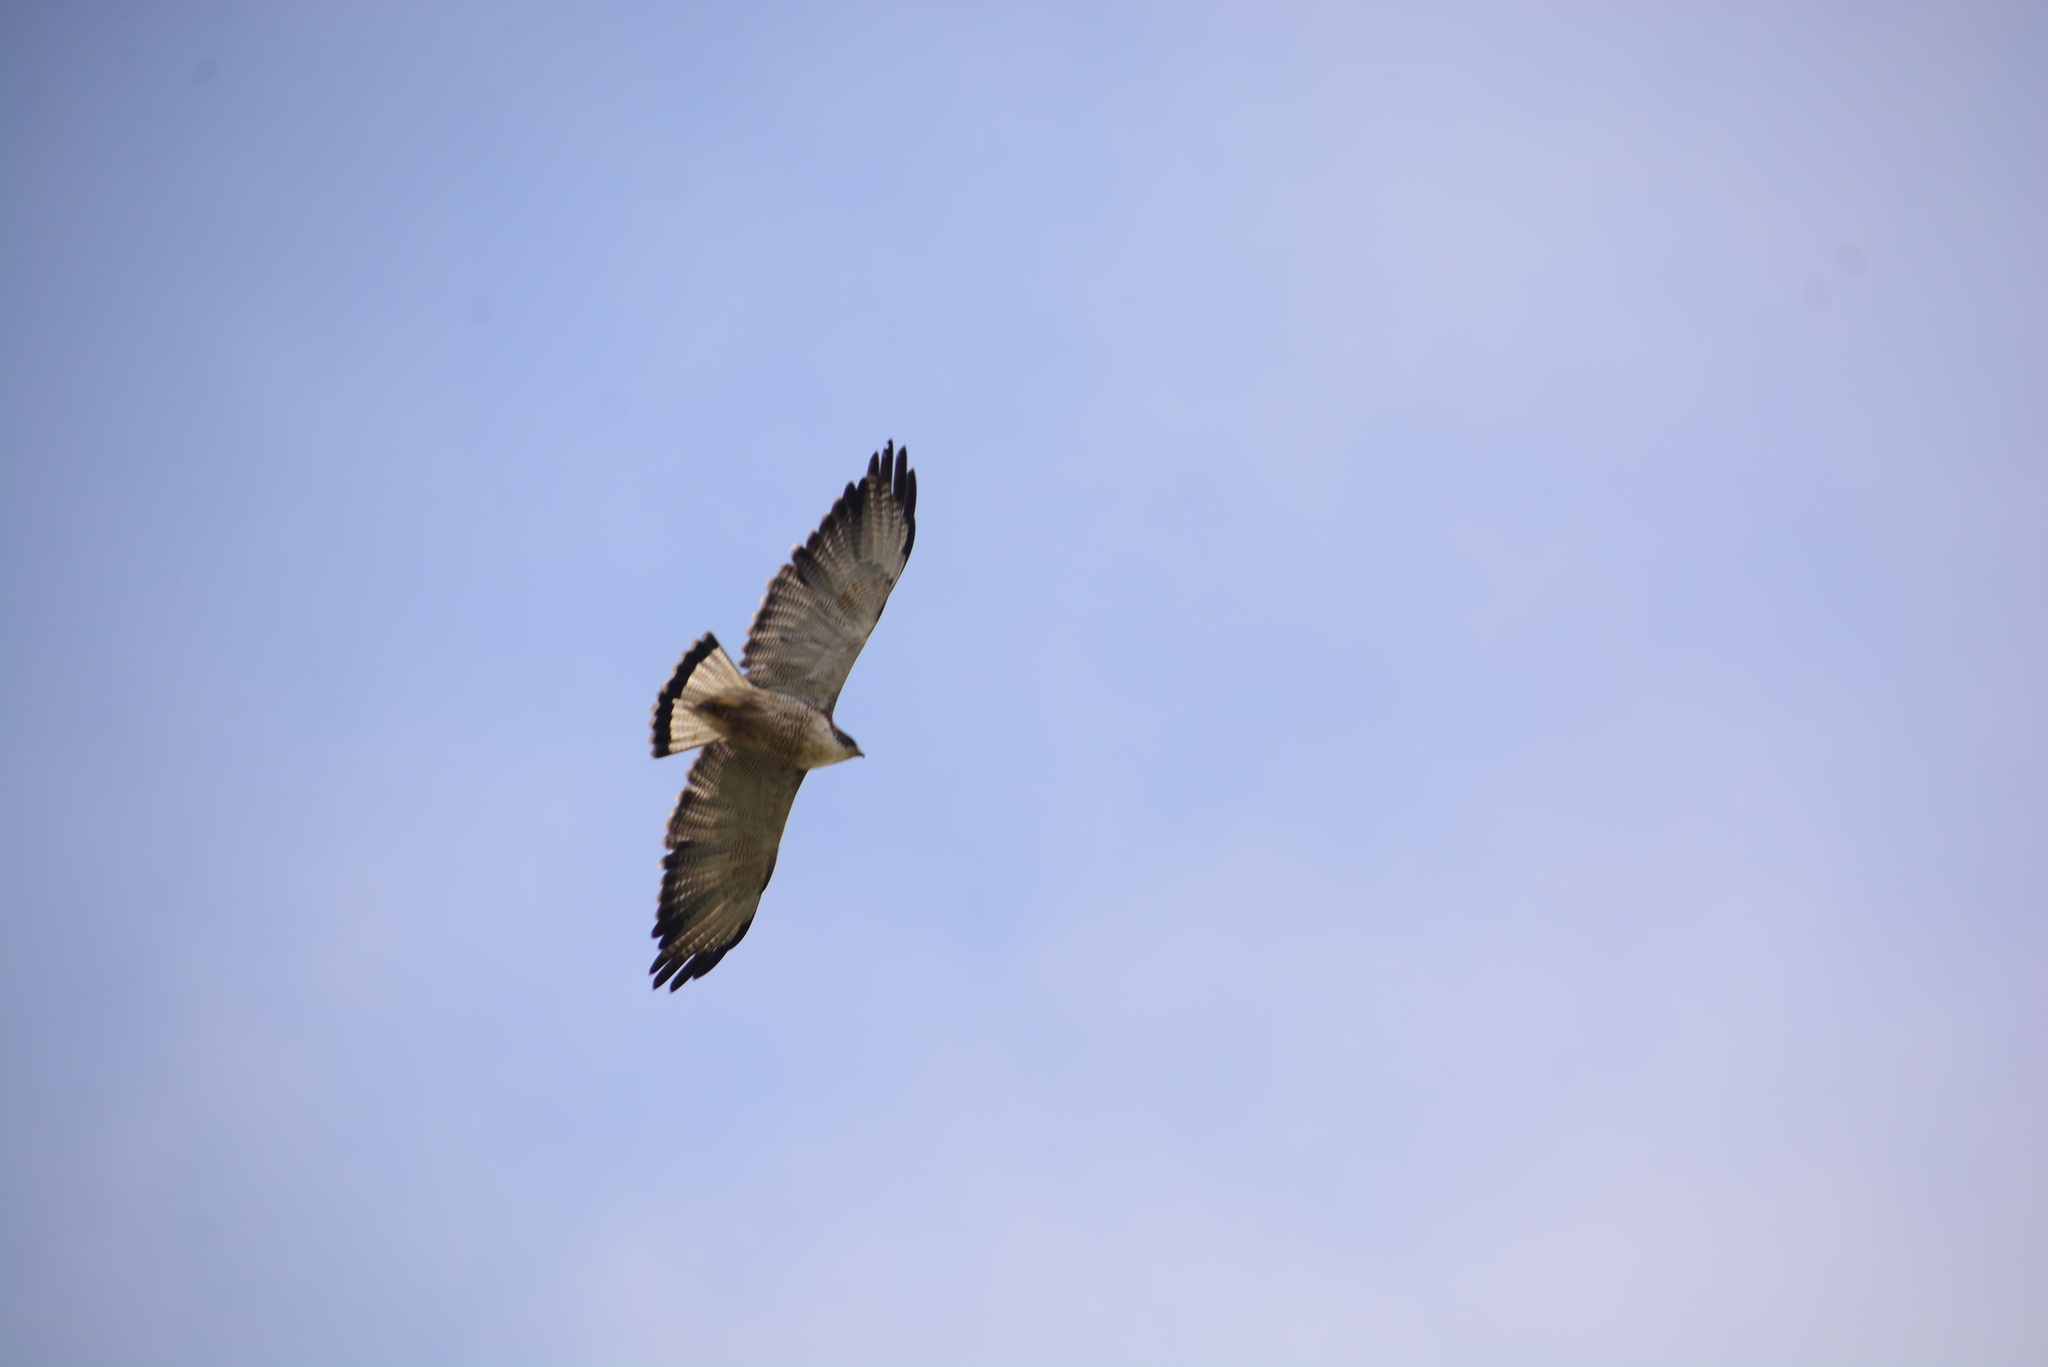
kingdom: Animalia
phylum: Chordata
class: Aves
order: Accipitriformes
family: Accipitridae
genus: Buteo
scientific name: Buteo polyosoma
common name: Variable hawk
